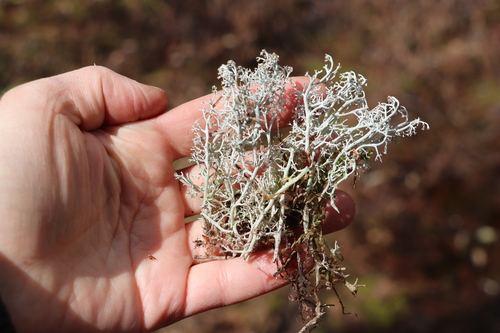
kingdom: Fungi
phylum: Ascomycota
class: Lecanoromycetes
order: Lecanorales
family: Cladoniaceae
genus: Cladonia
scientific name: Cladonia rangiferina
